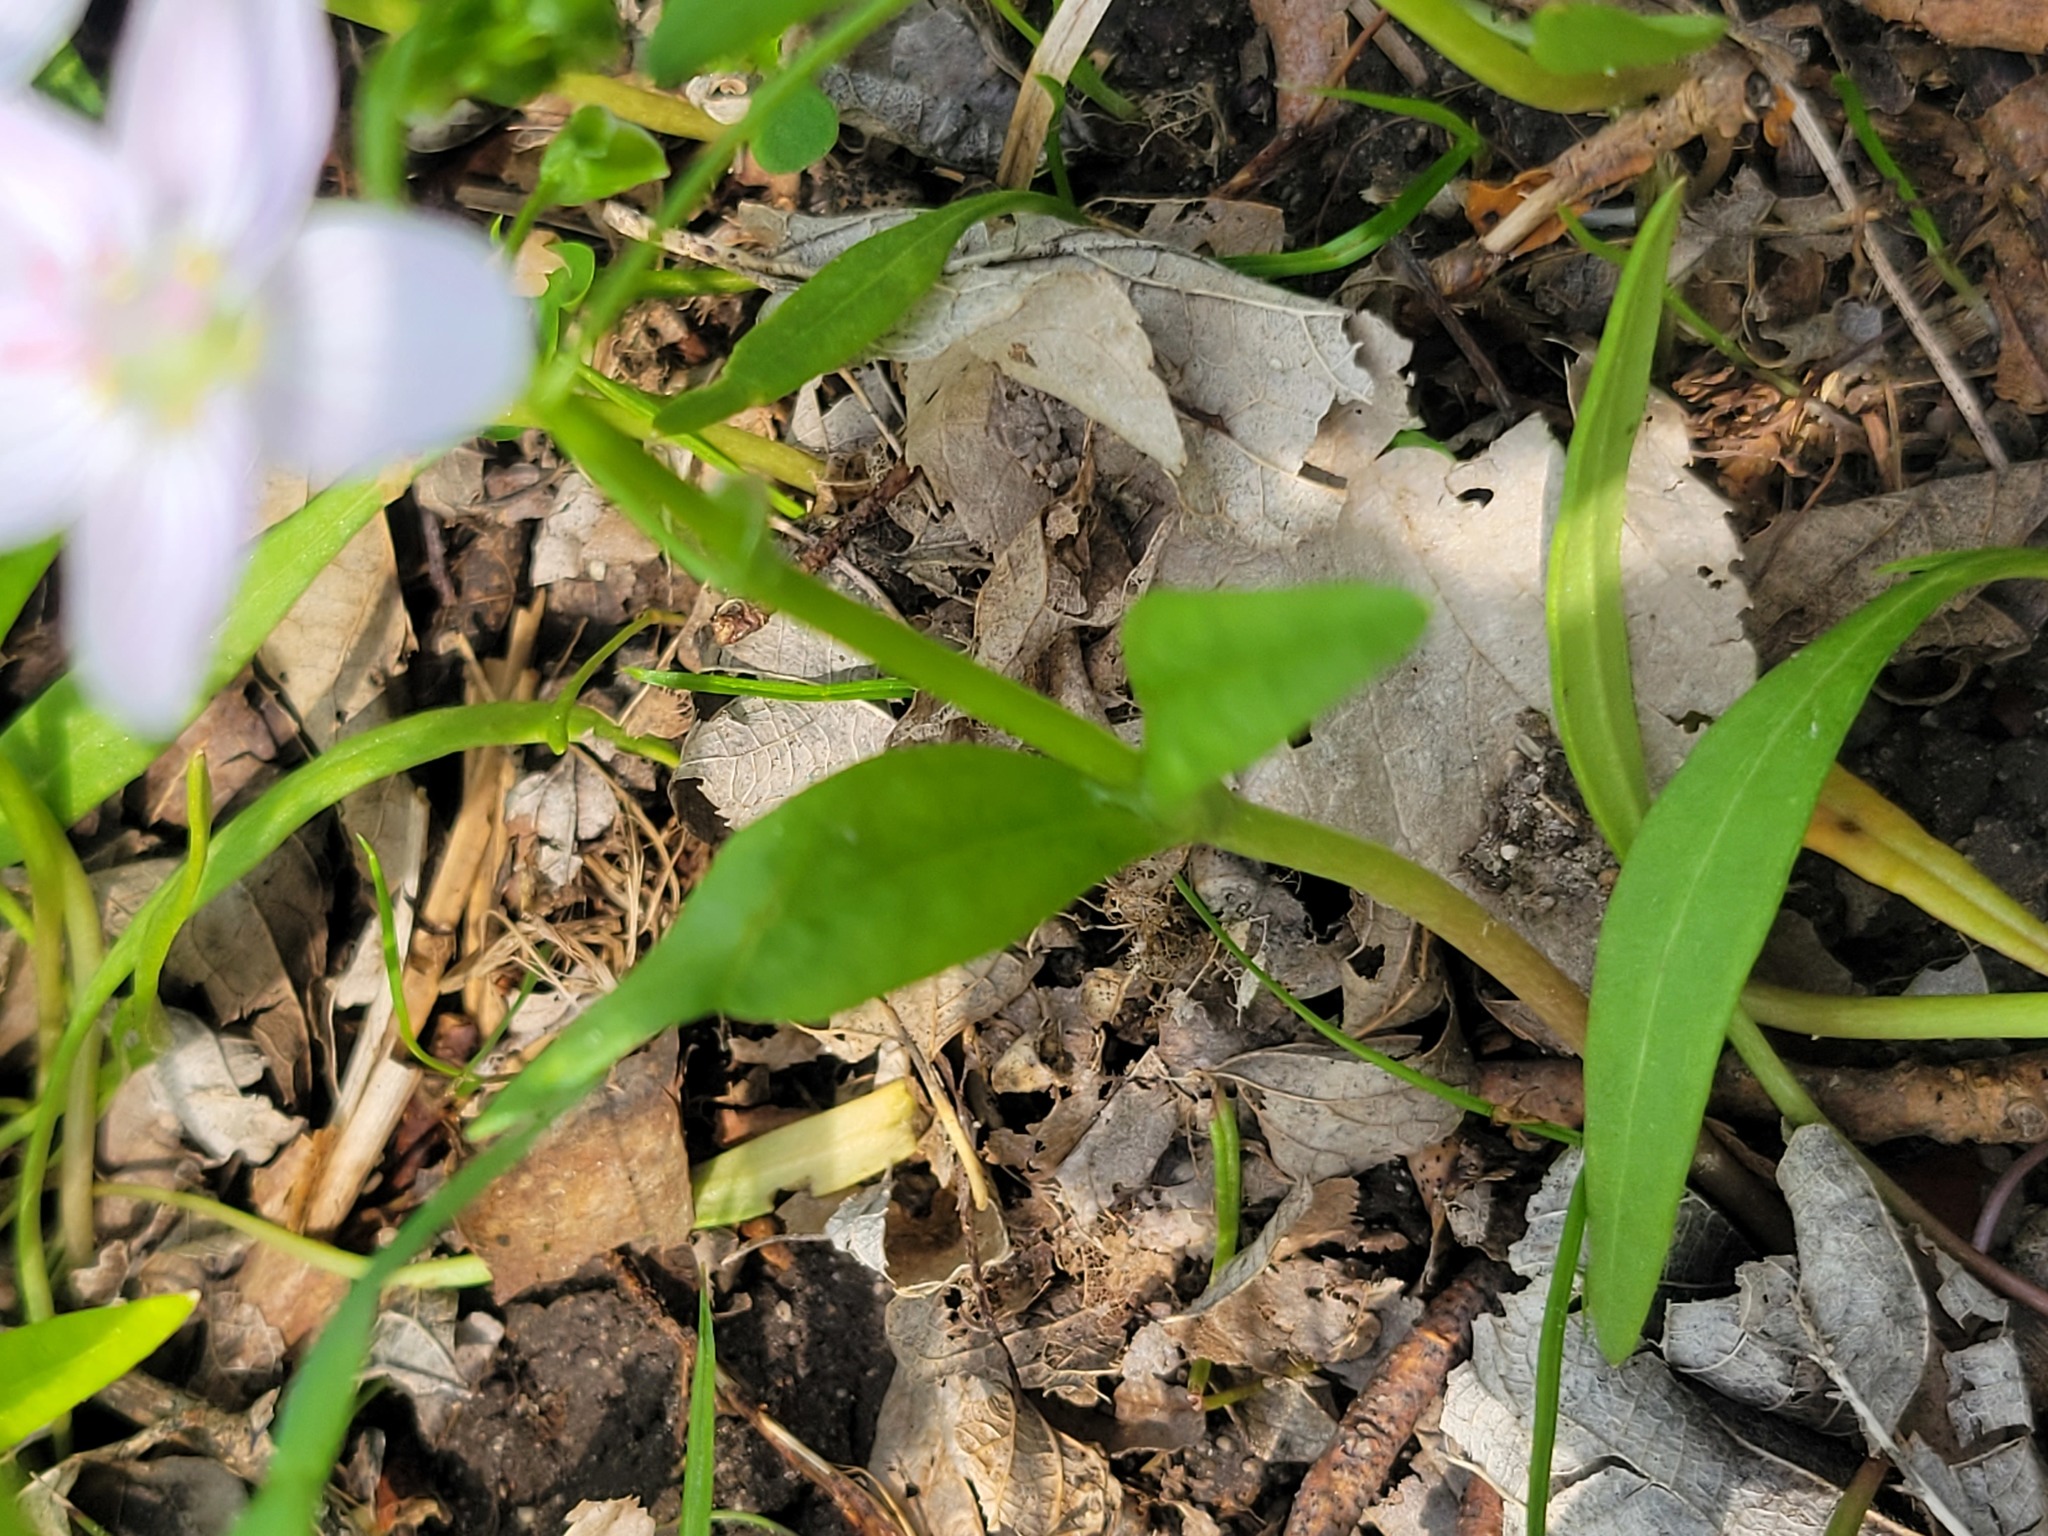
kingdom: Plantae
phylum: Tracheophyta
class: Magnoliopsida
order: Caryophyllales
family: Montiaceae
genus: Claytonia
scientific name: Claytonia virginica
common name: Virginia springbeauty
